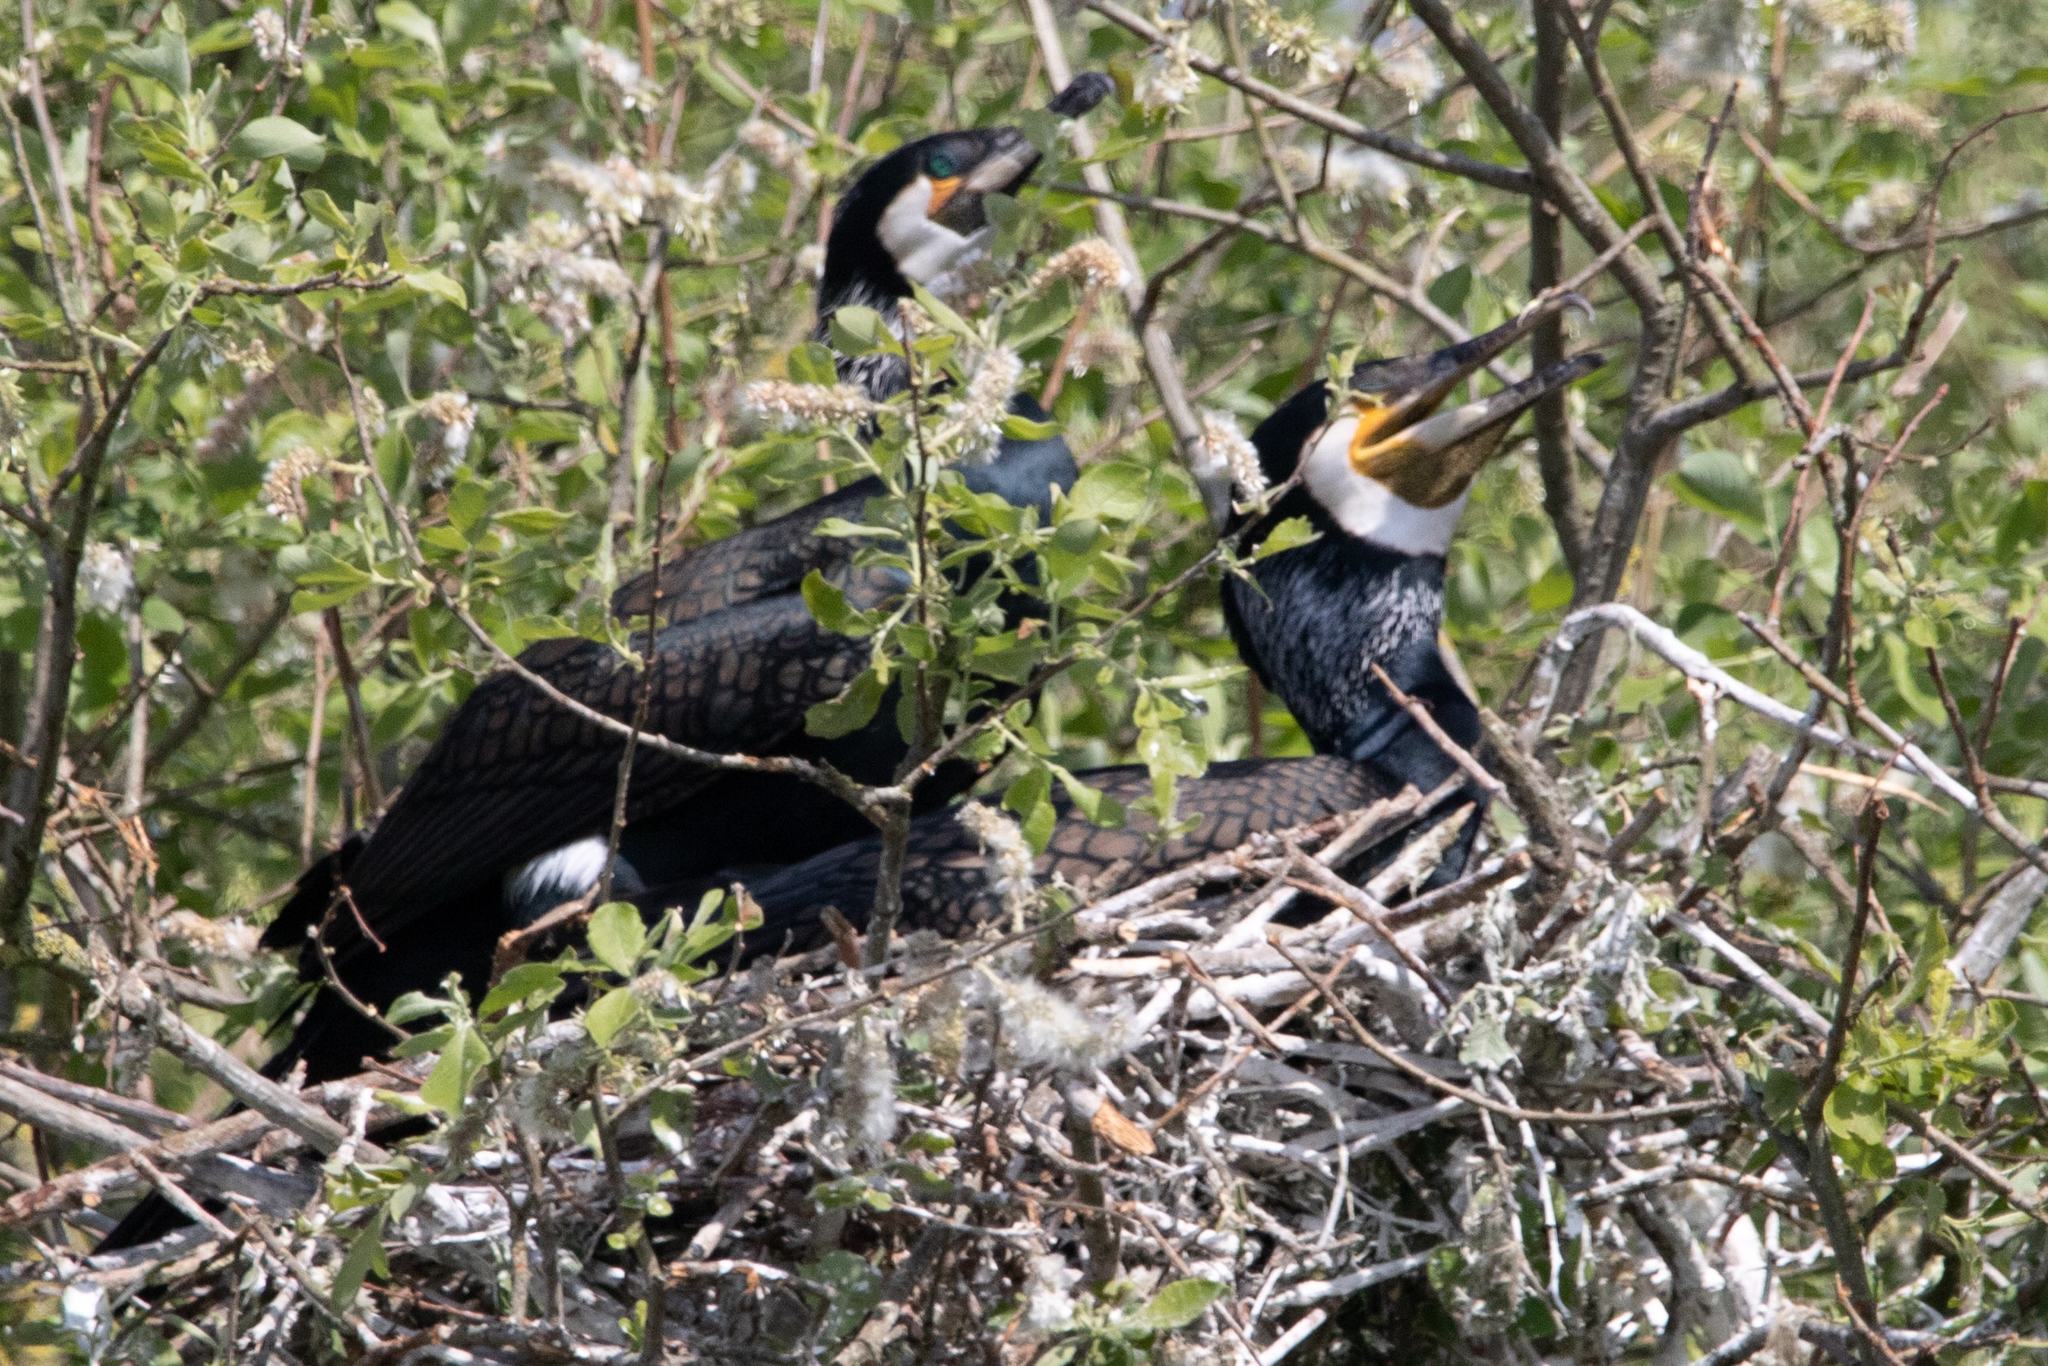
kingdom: Animalia
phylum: Chordata
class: Aves
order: Suliformes
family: Phalacrocoracidae
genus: Phalacrocorax
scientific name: Phalacrocorax carbo
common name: Great cormorant
